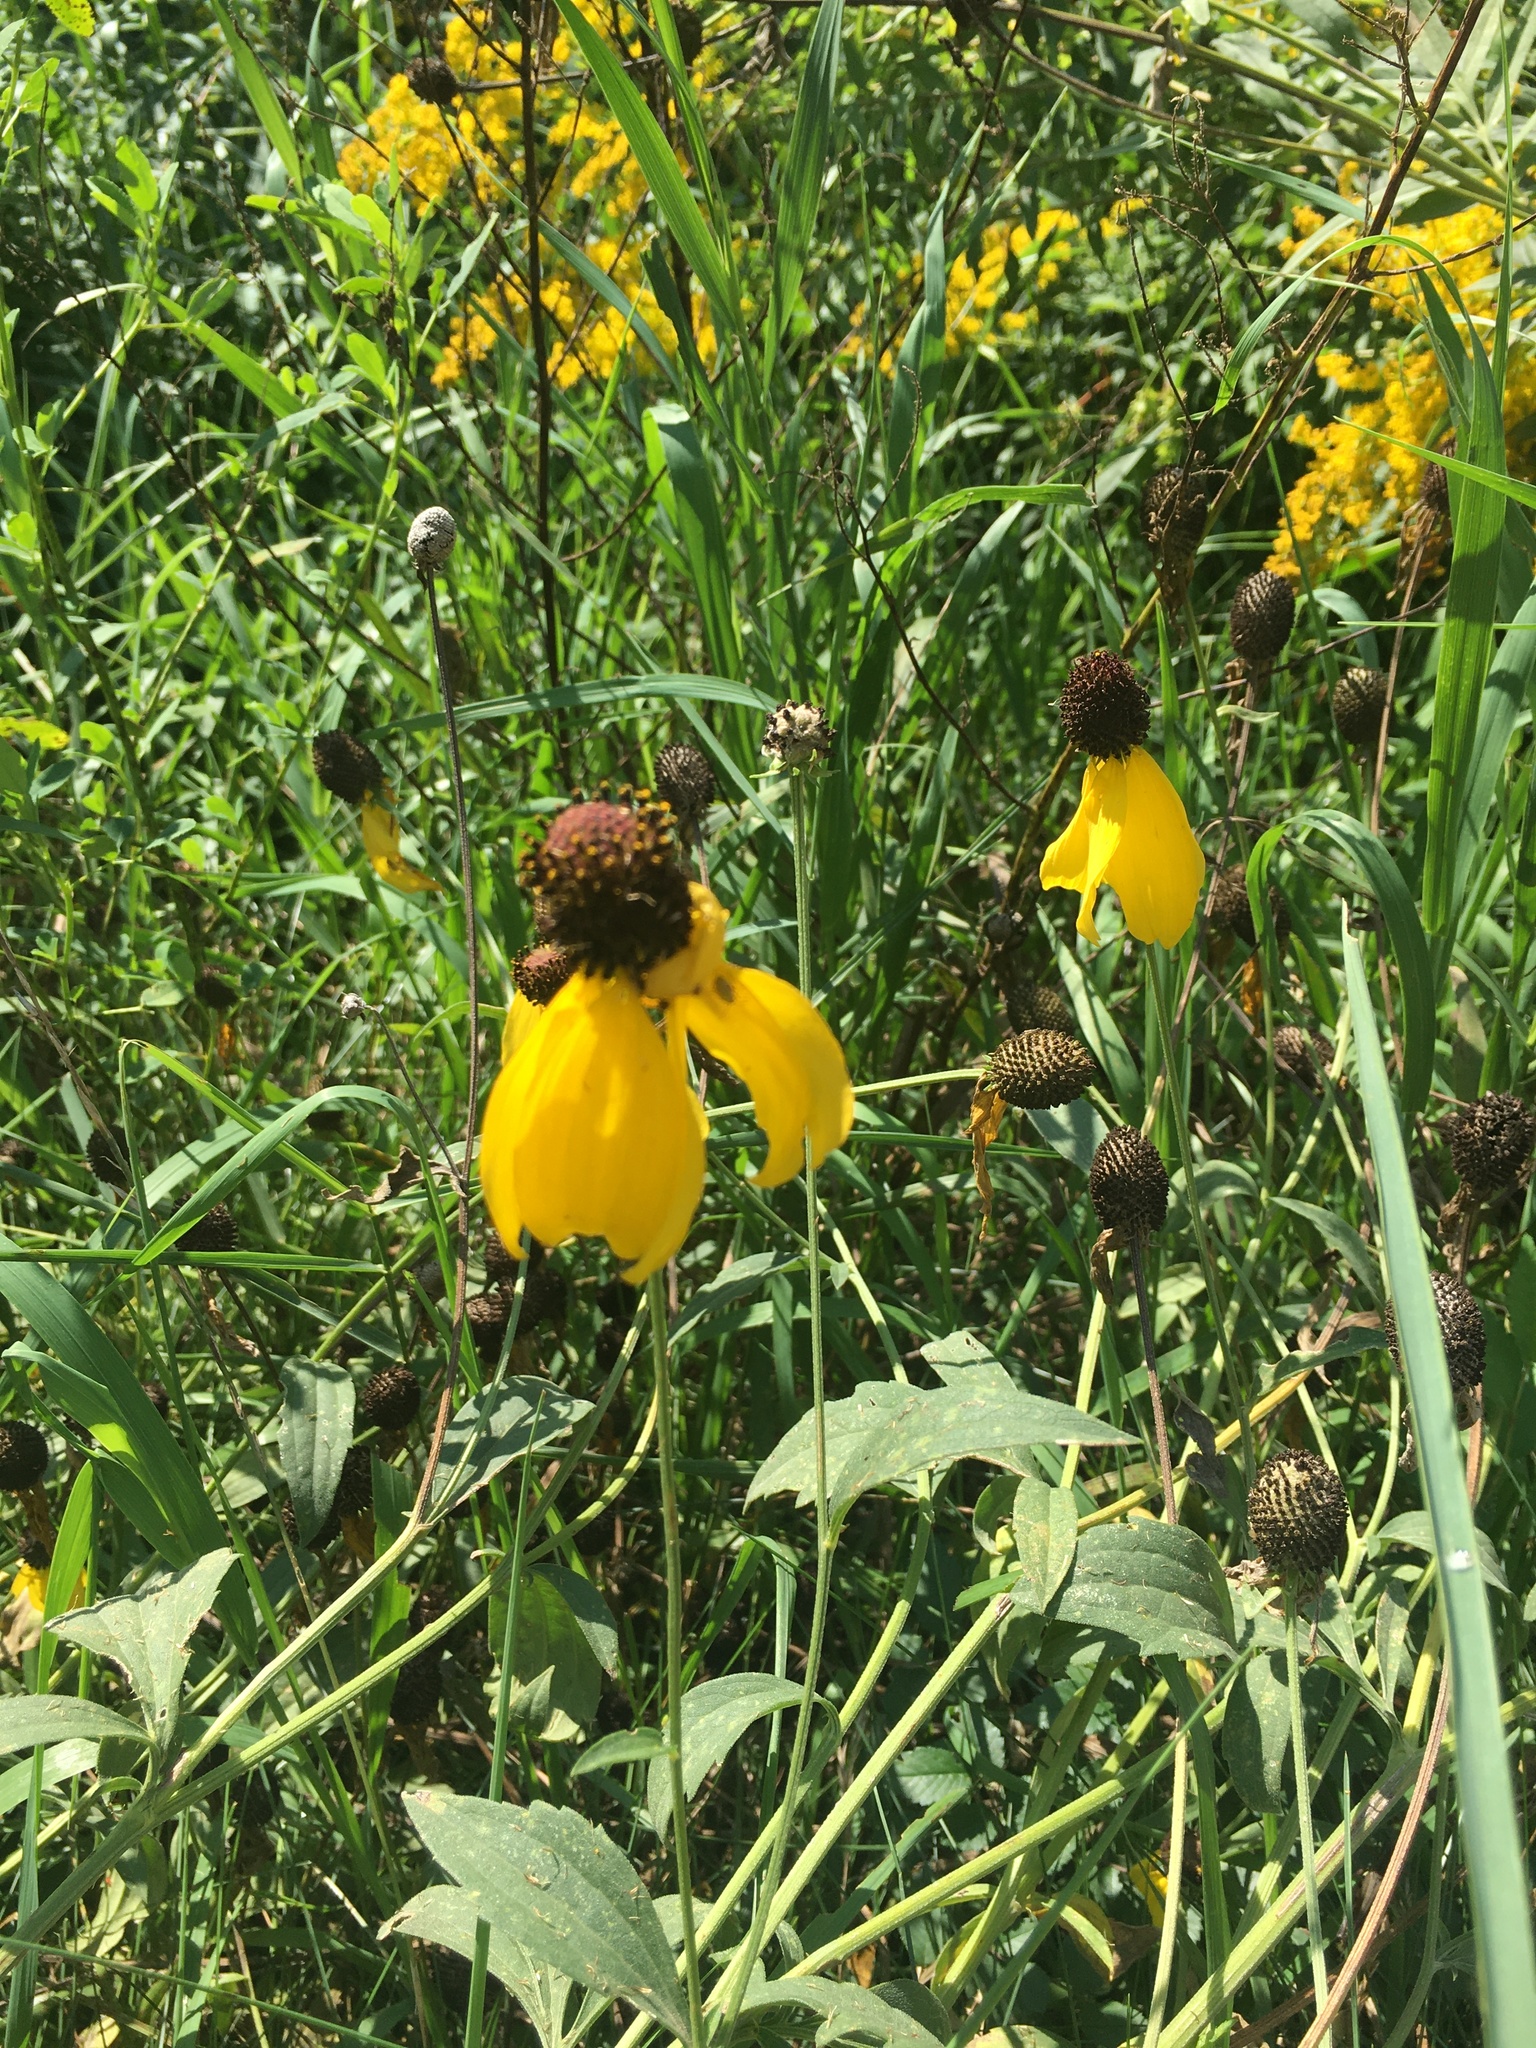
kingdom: Plantae
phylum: Tracheophyta
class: Magnoliopsida
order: Asterales
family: Asteraceae
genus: Ratibida
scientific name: Ratibida pinnata
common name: Drooping prairie-coneflower
